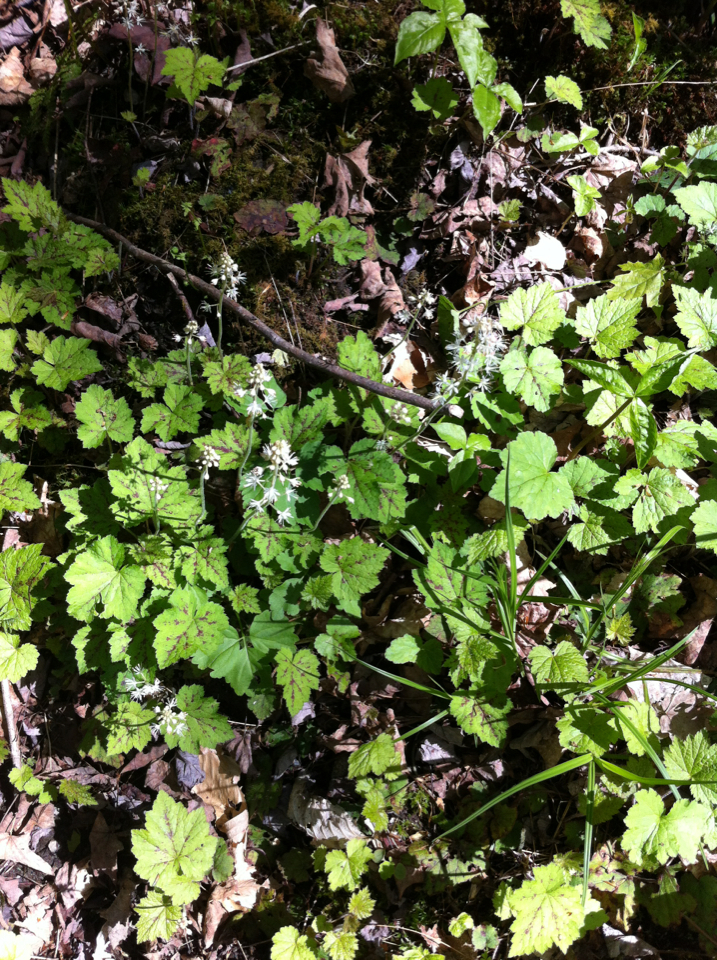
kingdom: Plantae
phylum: Tracheophyta
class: Magnoliopsida
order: Saxifragales
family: Saxifragaceae
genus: Tiarella
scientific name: Tiarella stolonifera
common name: Stoloniferous foamflower
